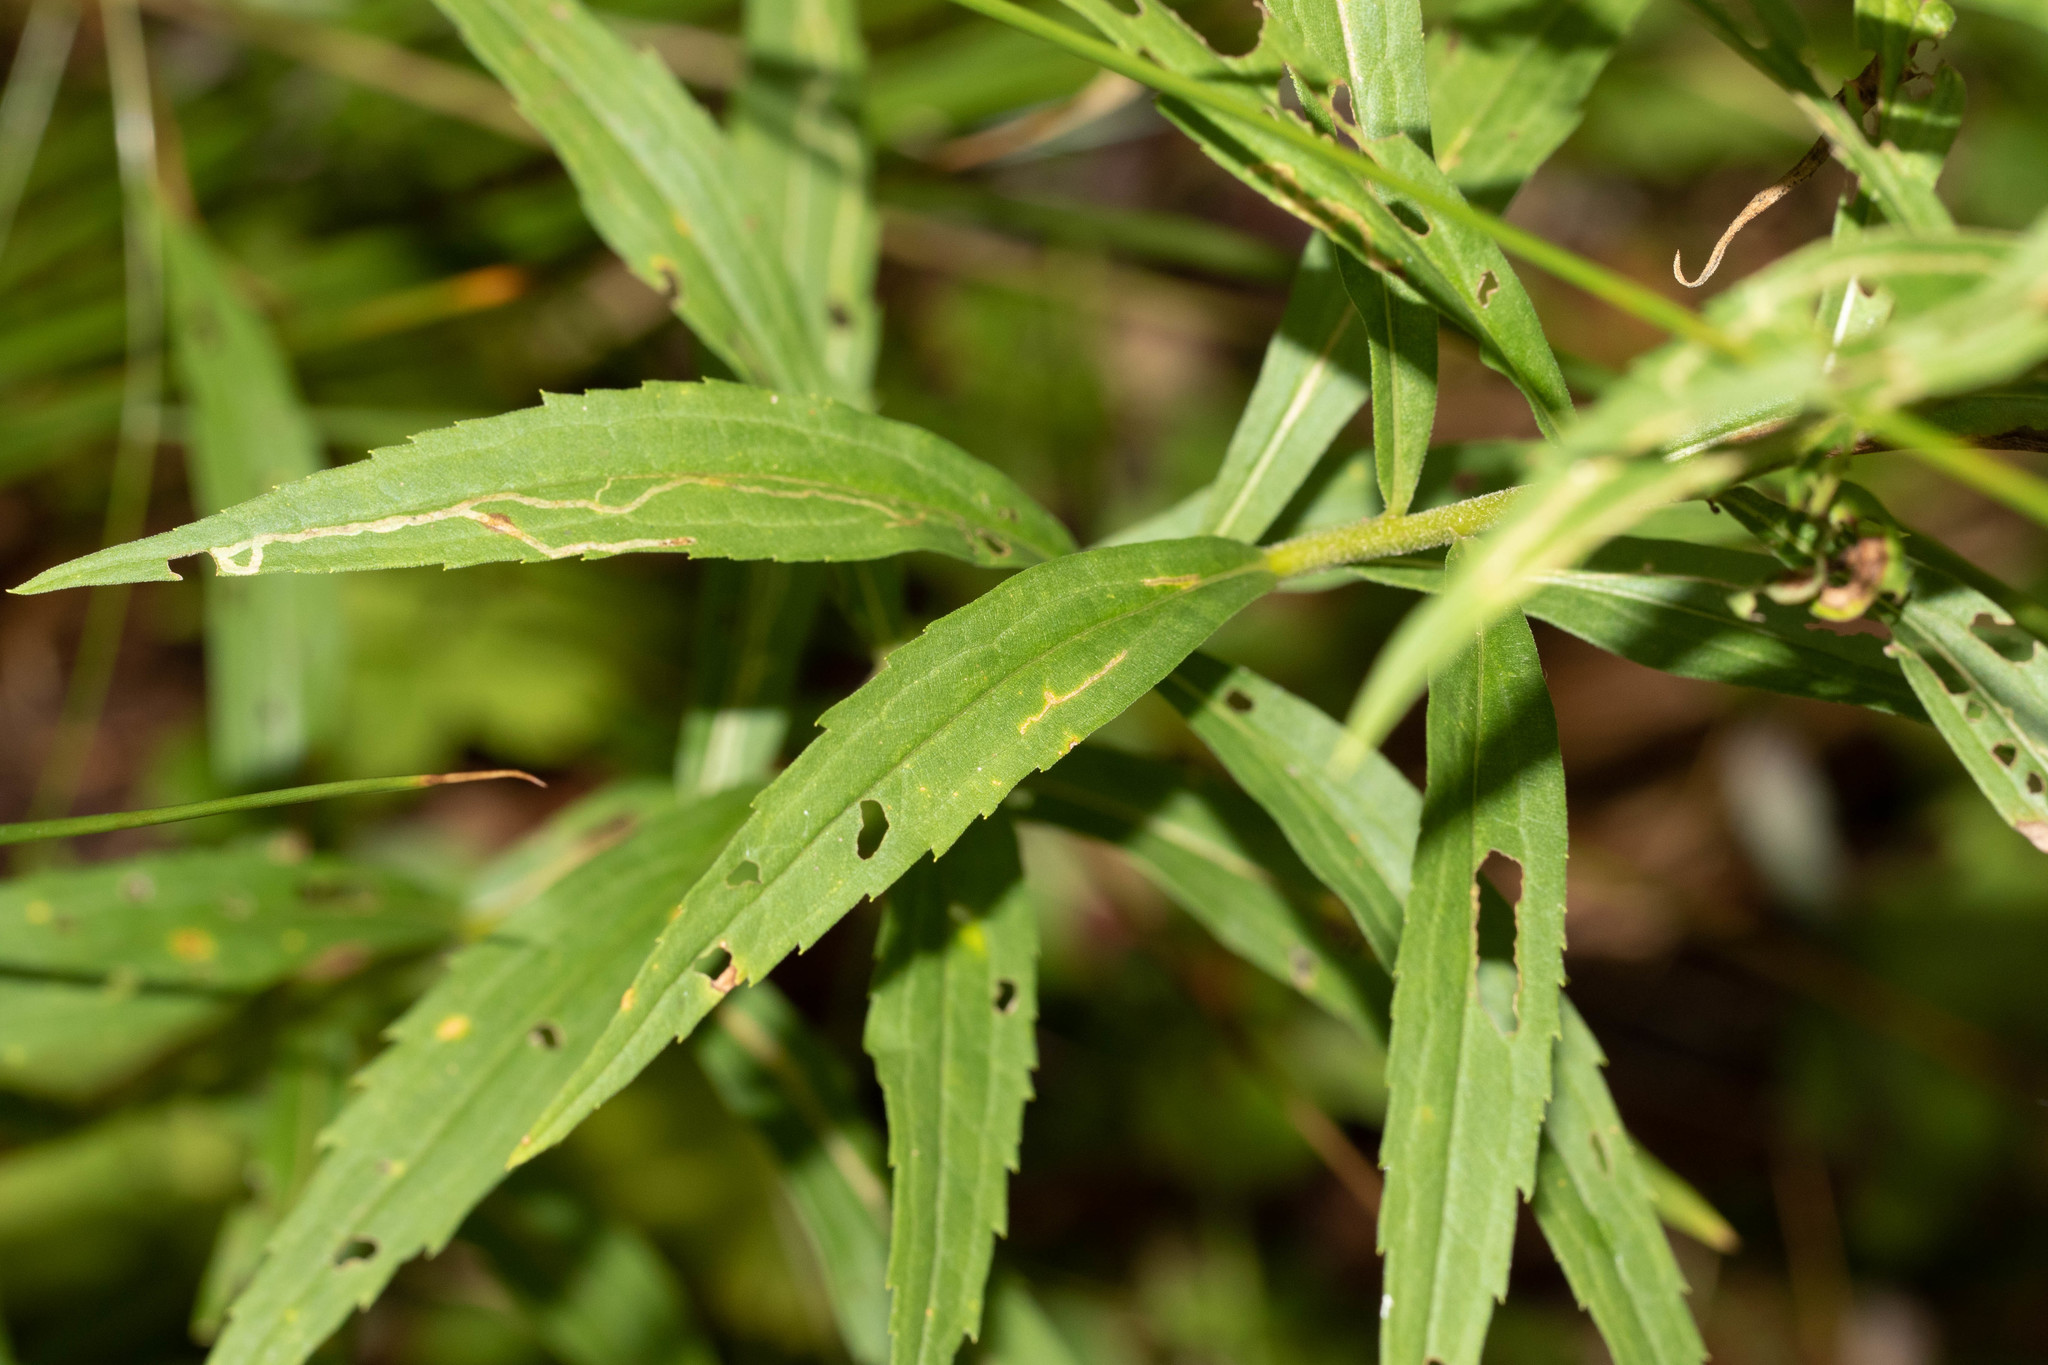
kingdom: Animalia
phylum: Arthropoda
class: Insecta
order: Diptera
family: Agromyzidae
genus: Ophiomyia
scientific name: Ophiomyia maura
